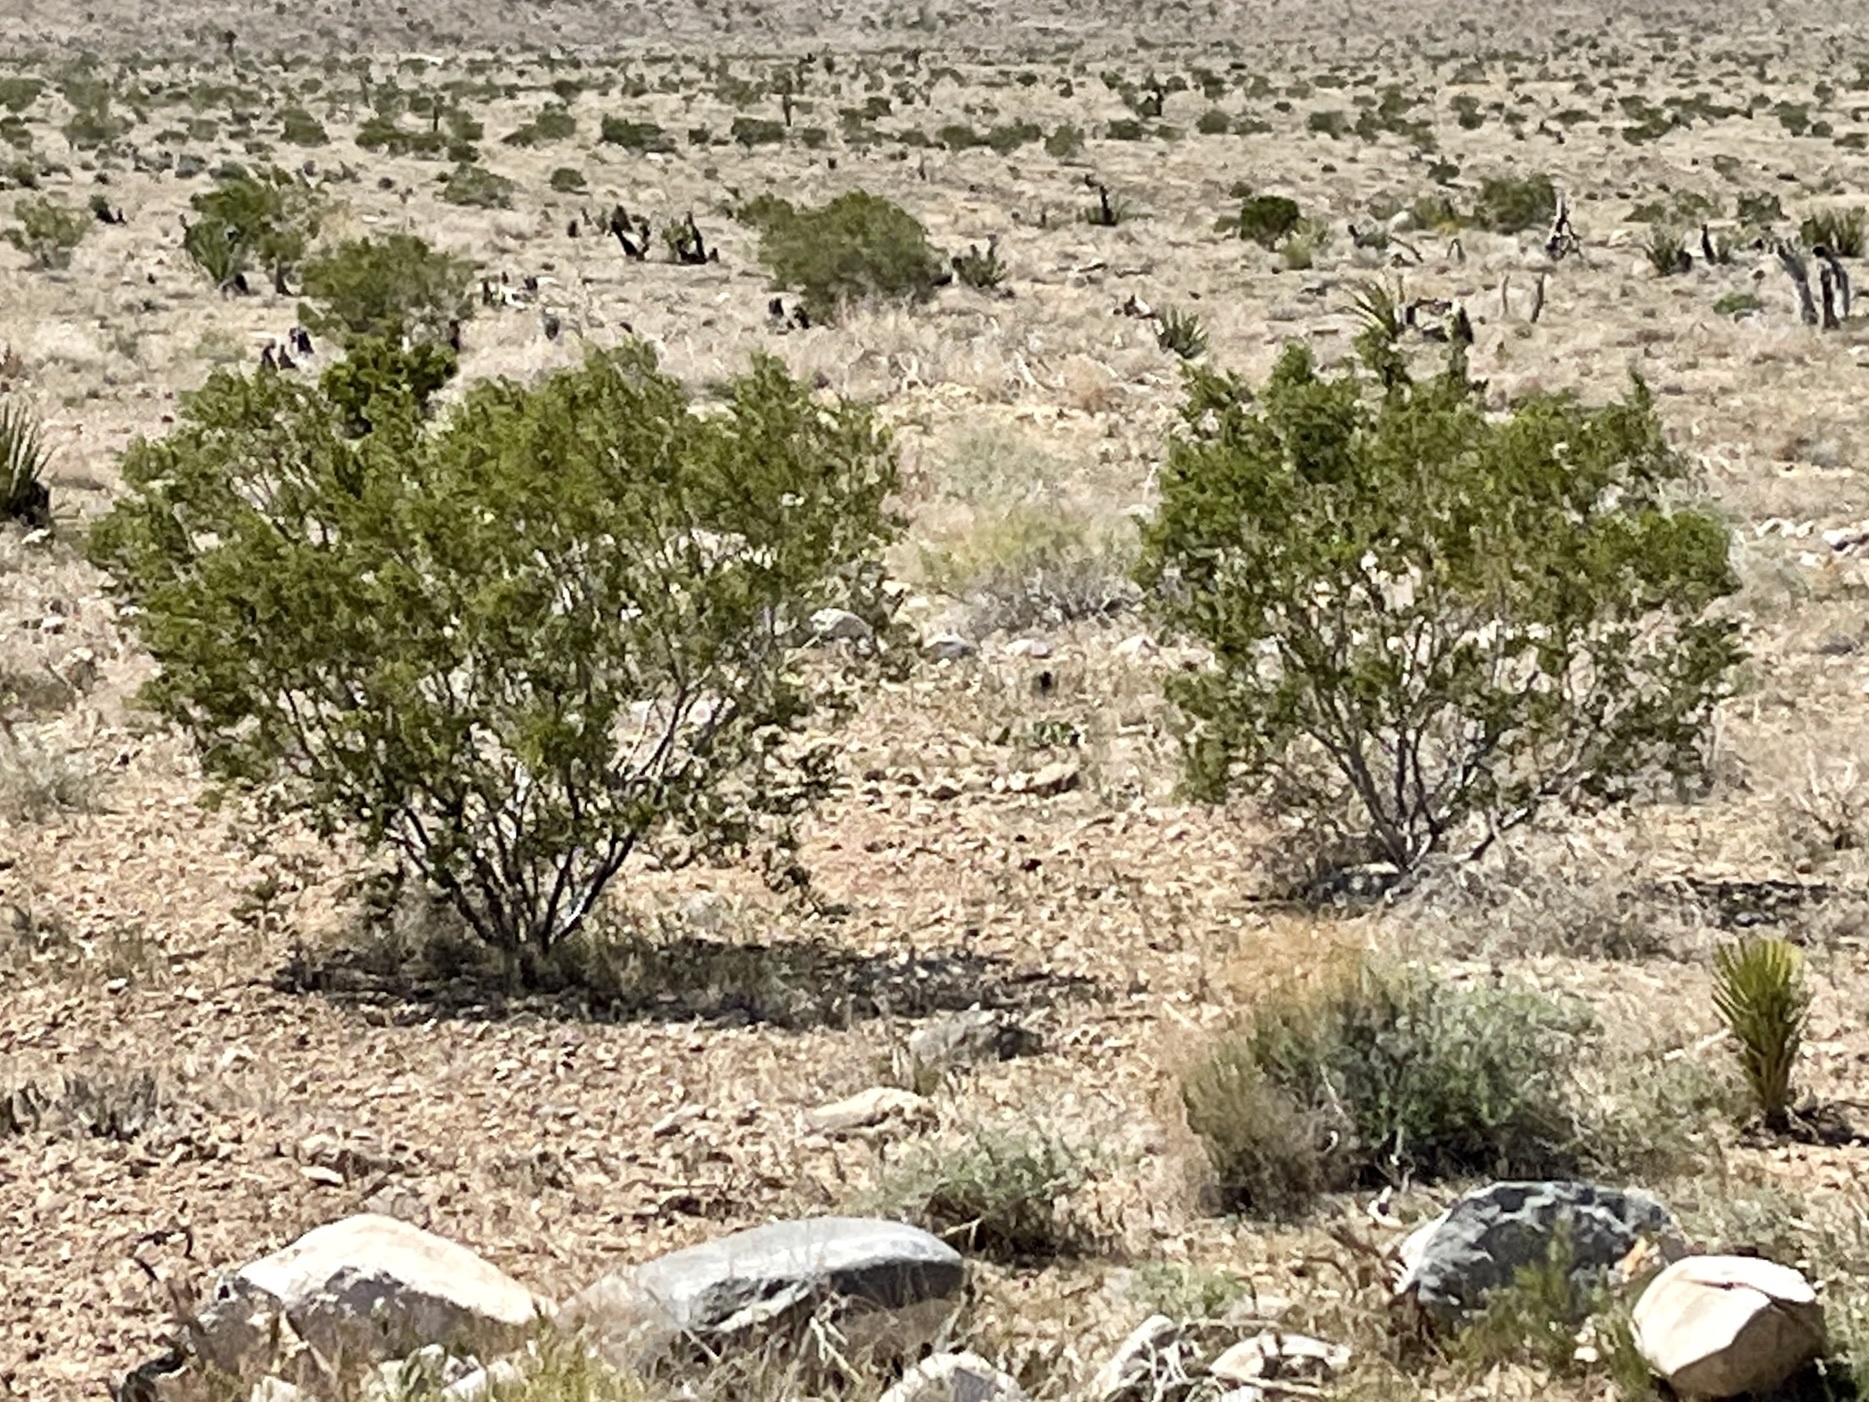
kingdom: Plantae
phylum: Tracheophyta
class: Magnoliopsida
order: Zygophyllales
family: Zygophyllaceae
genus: Larrea
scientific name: Larrea tridentata
